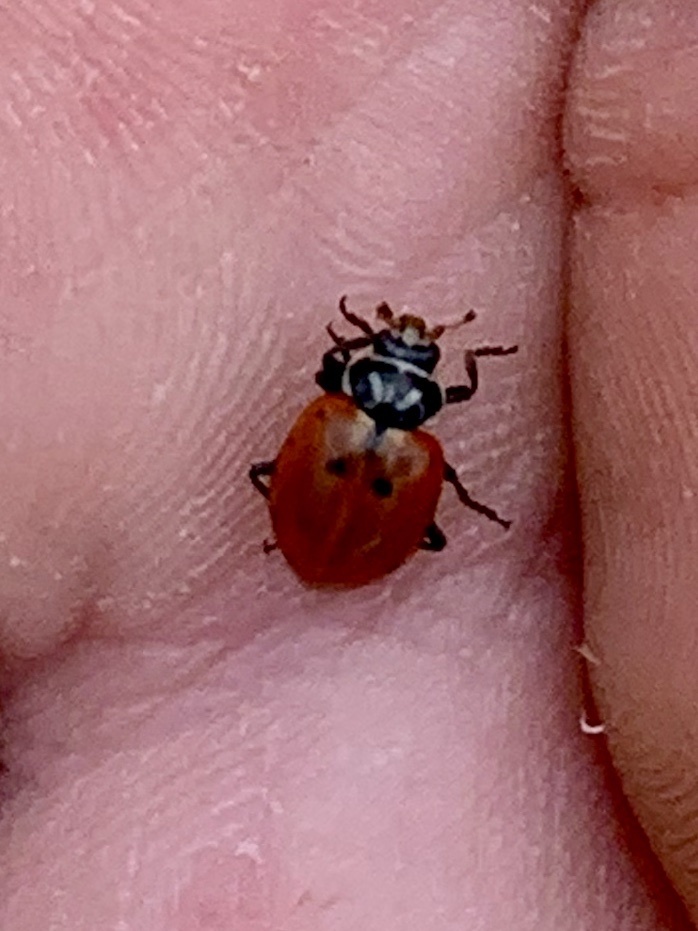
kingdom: Animalia
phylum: Arthropoda
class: Insecta
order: Coleoptera
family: Coccinellidae
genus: Hippodamia
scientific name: Hippodamia convergens
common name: Convergent lady beetle
